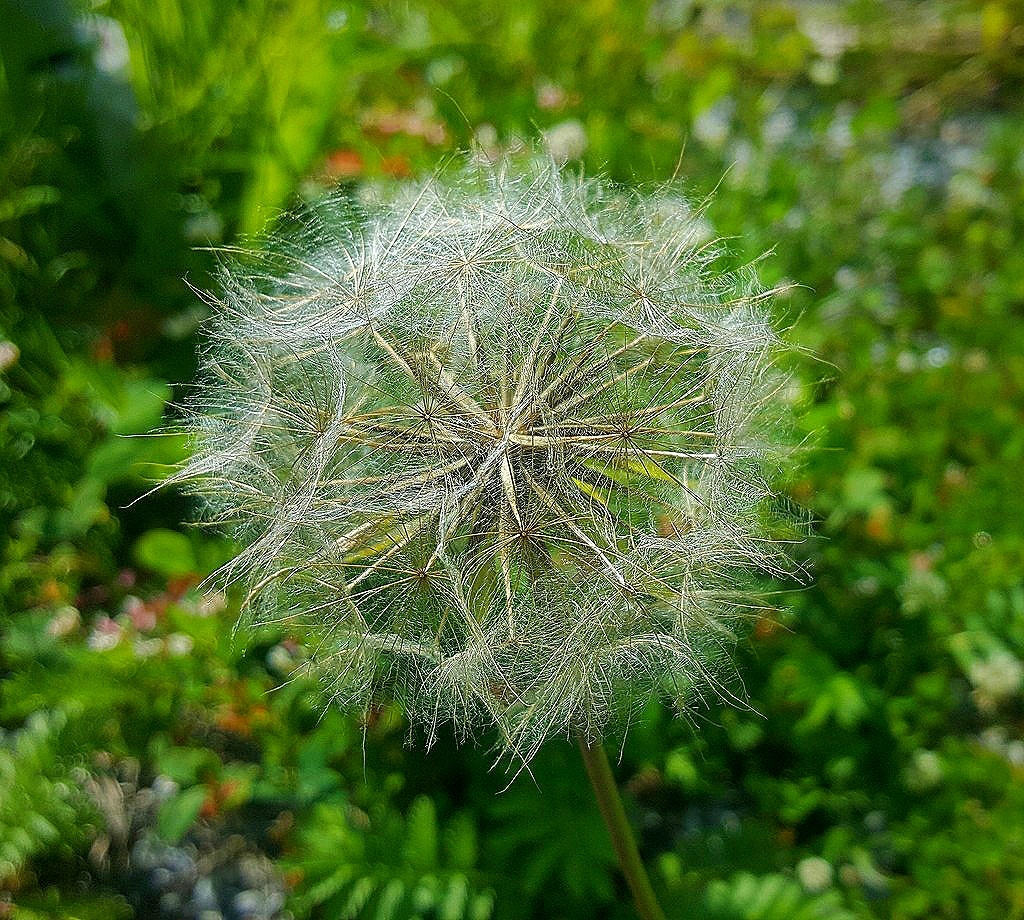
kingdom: Plantae
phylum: Tracheophyta
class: Magnoliopsida
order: Asterales
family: Asteraceae
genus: Tragopogon
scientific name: Tragopogon pratensis
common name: Goat's-beard
